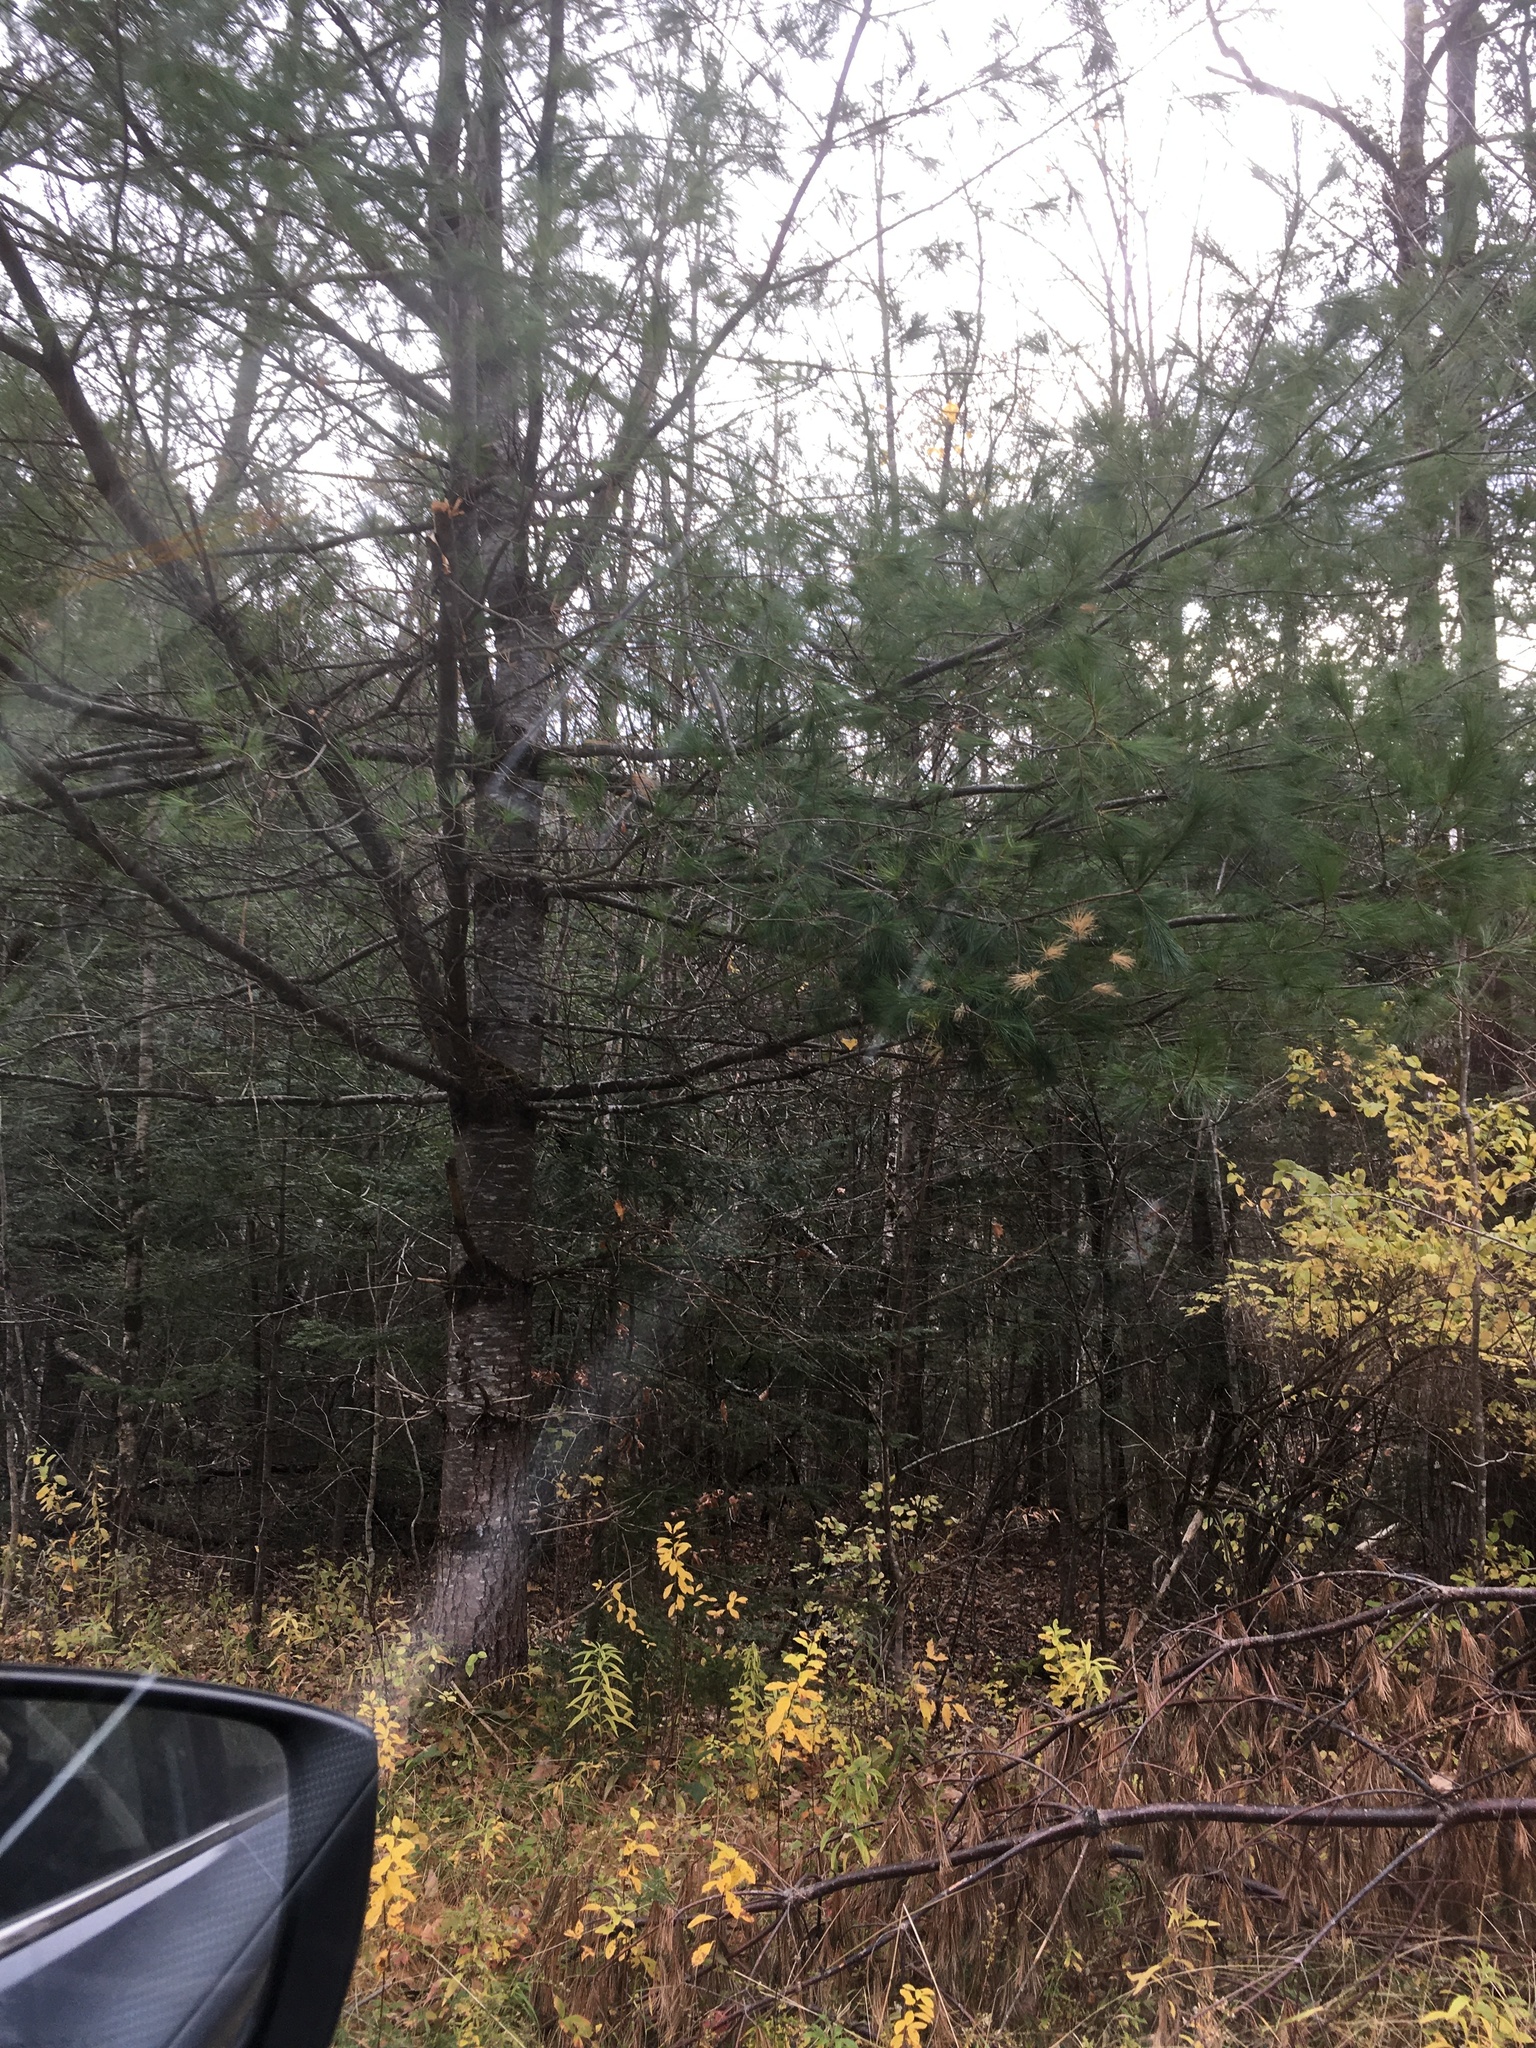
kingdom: Plantae
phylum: Tracheophyta
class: Pinopsida
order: Pinales
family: Pinaceae
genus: Pinus
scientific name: Pinus strobus
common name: Weymouth pine
